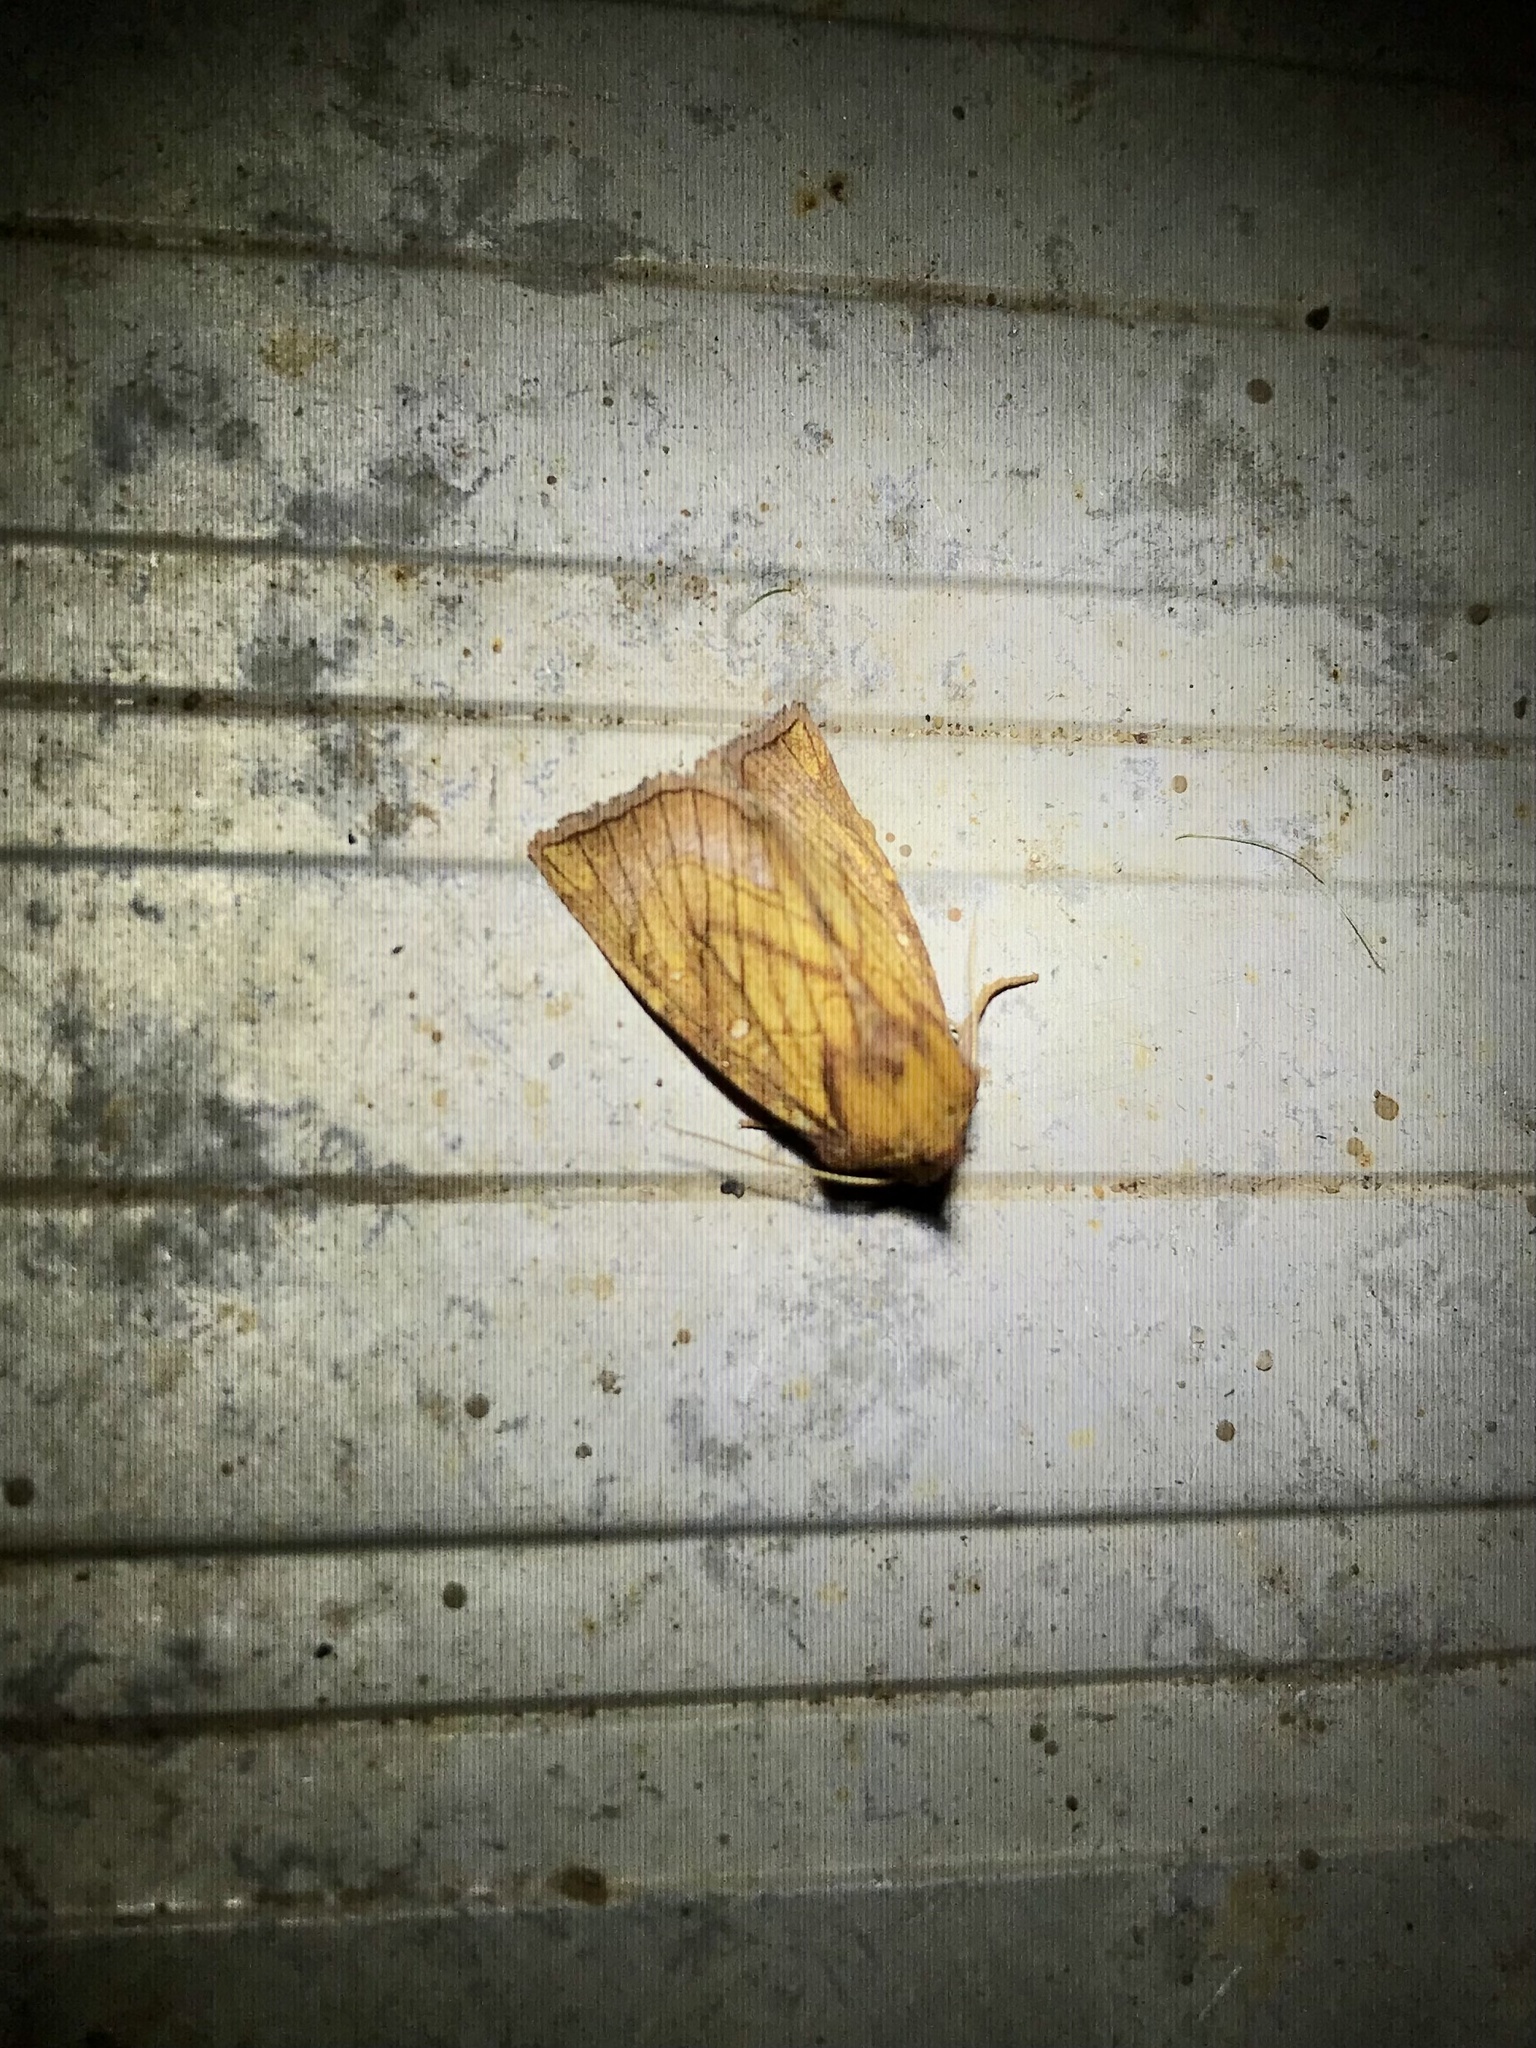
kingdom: Animalia
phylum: Arthropoda
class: Insecta
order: Lepidoptera
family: Noctuidae
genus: Papaipema
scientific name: Papaipema inquaesita
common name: Sensitive fern borer moth
